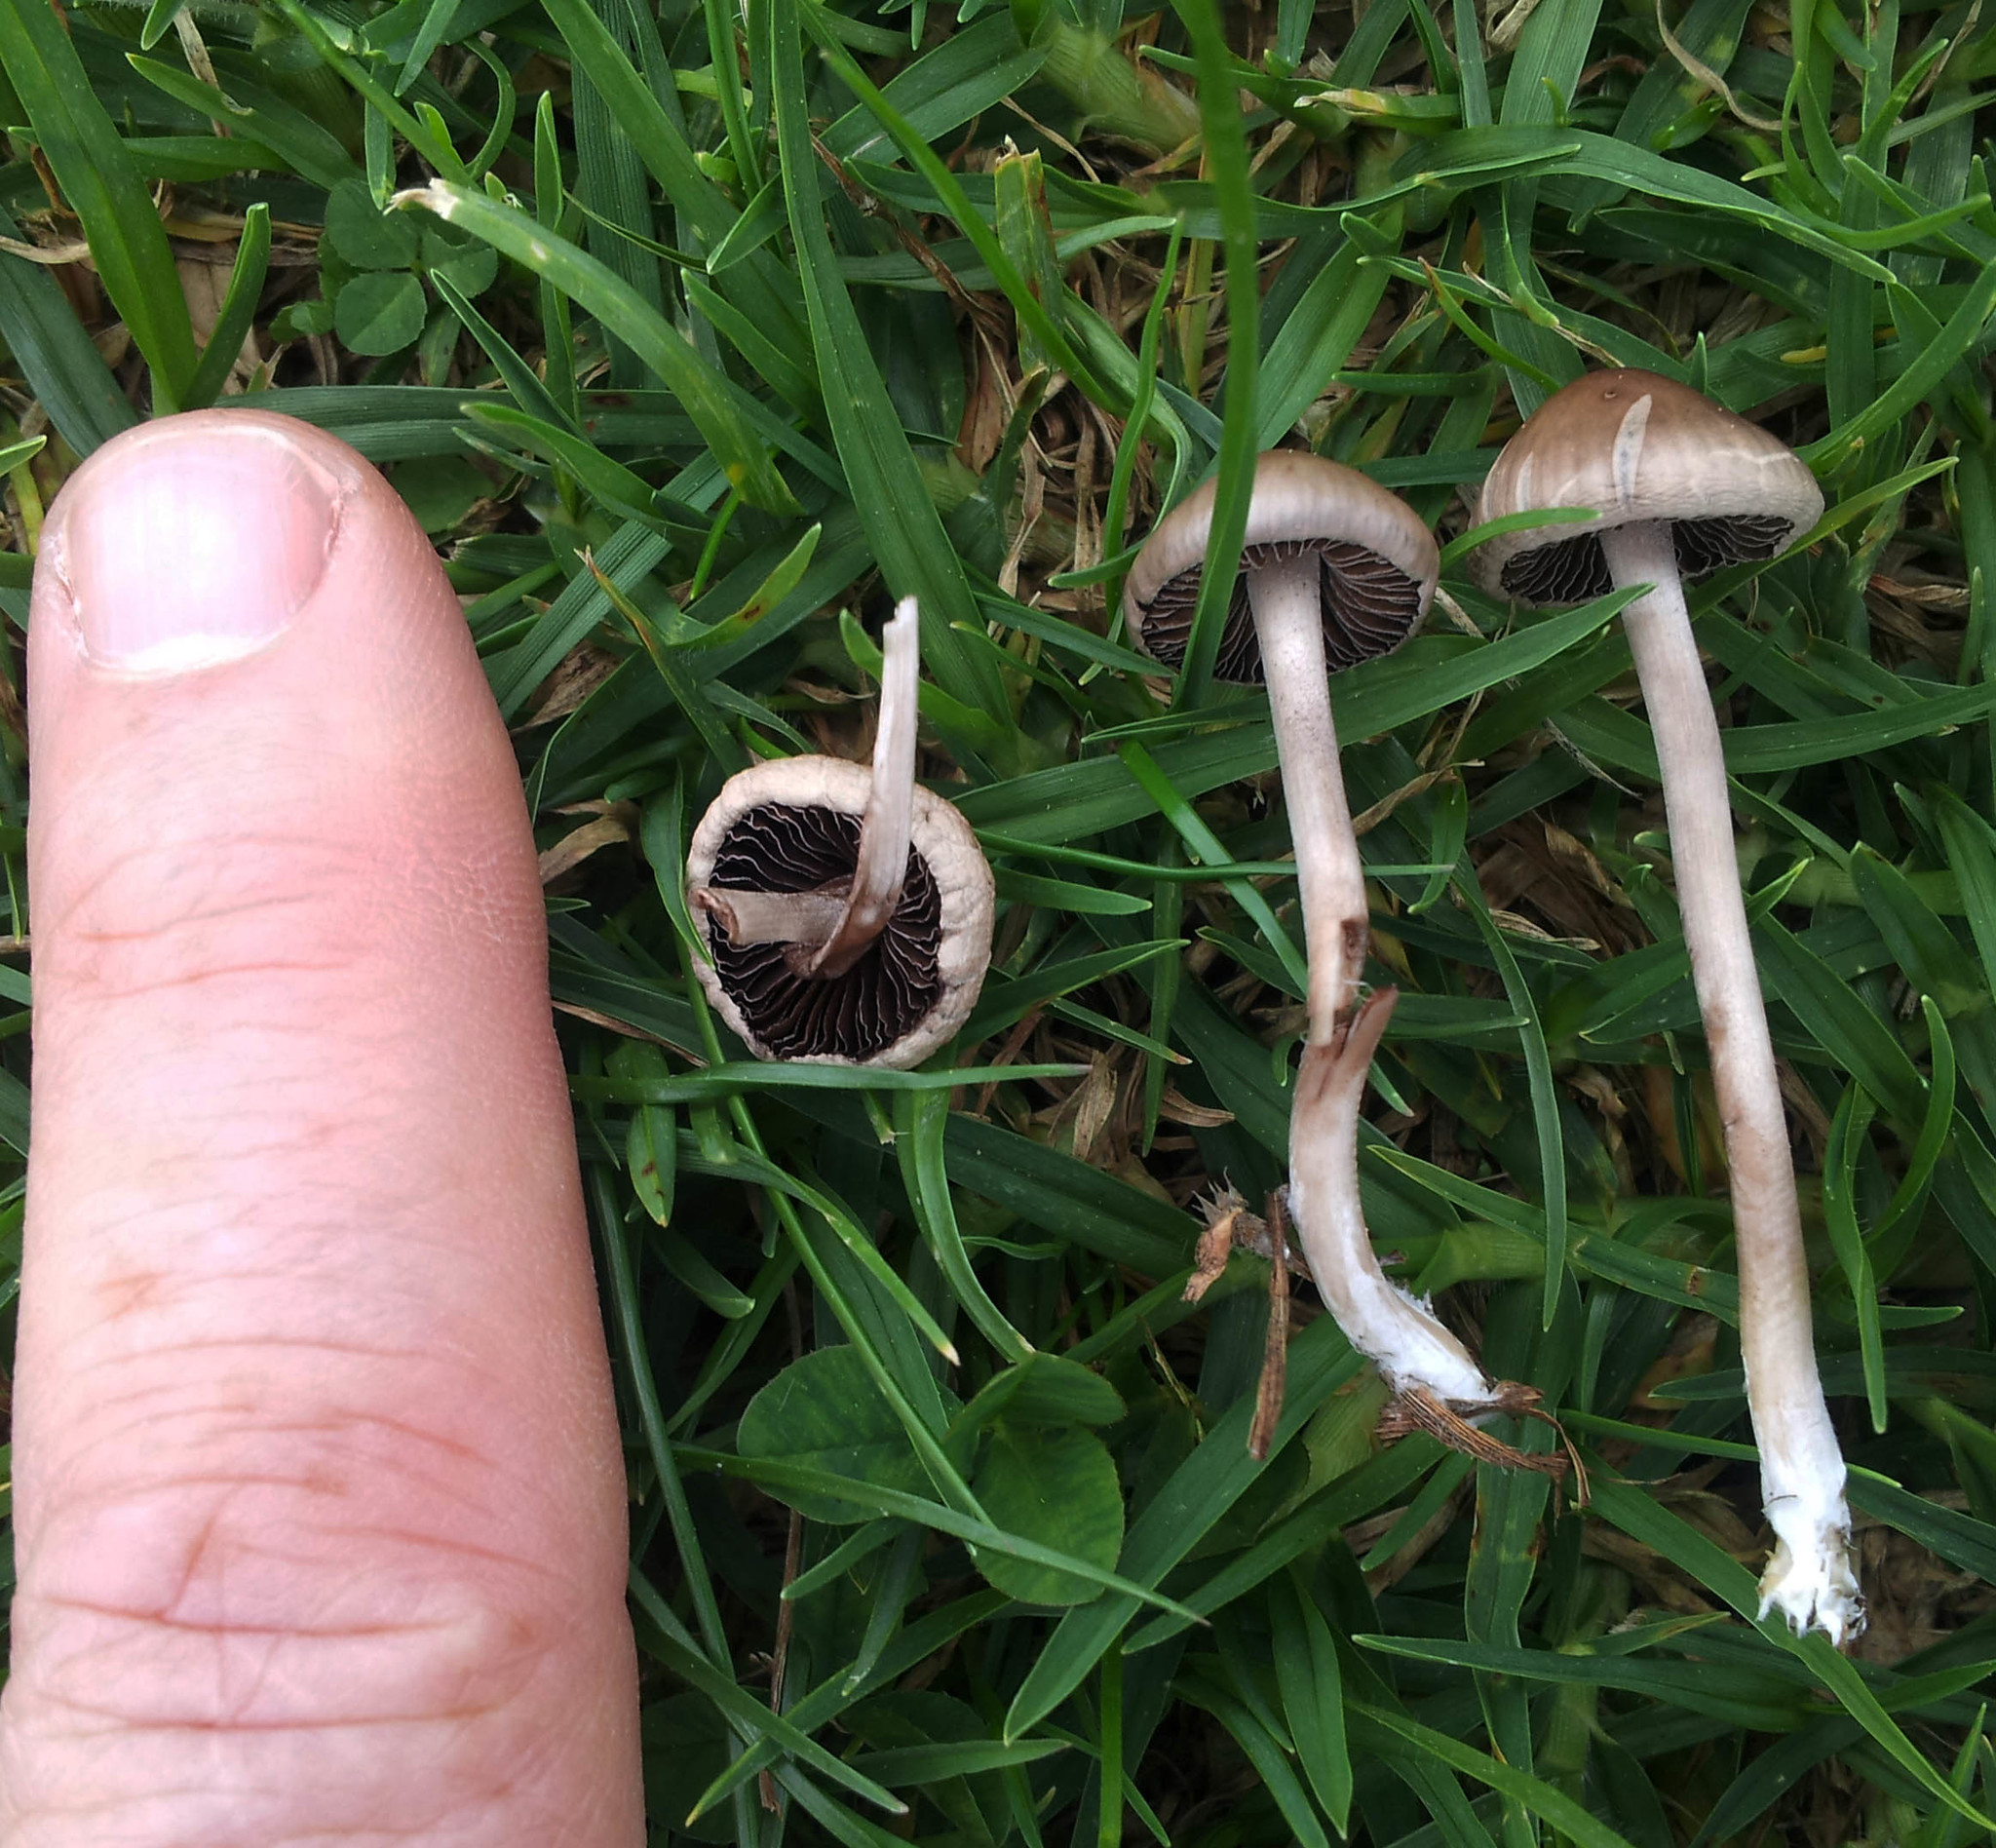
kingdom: Fungi
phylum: Basidiomycota
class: Agaricomycetes
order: Agaricales
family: Bolbitiaceae
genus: Panaeolina
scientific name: Panaeolina foenisecii
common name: Brown hay cap
